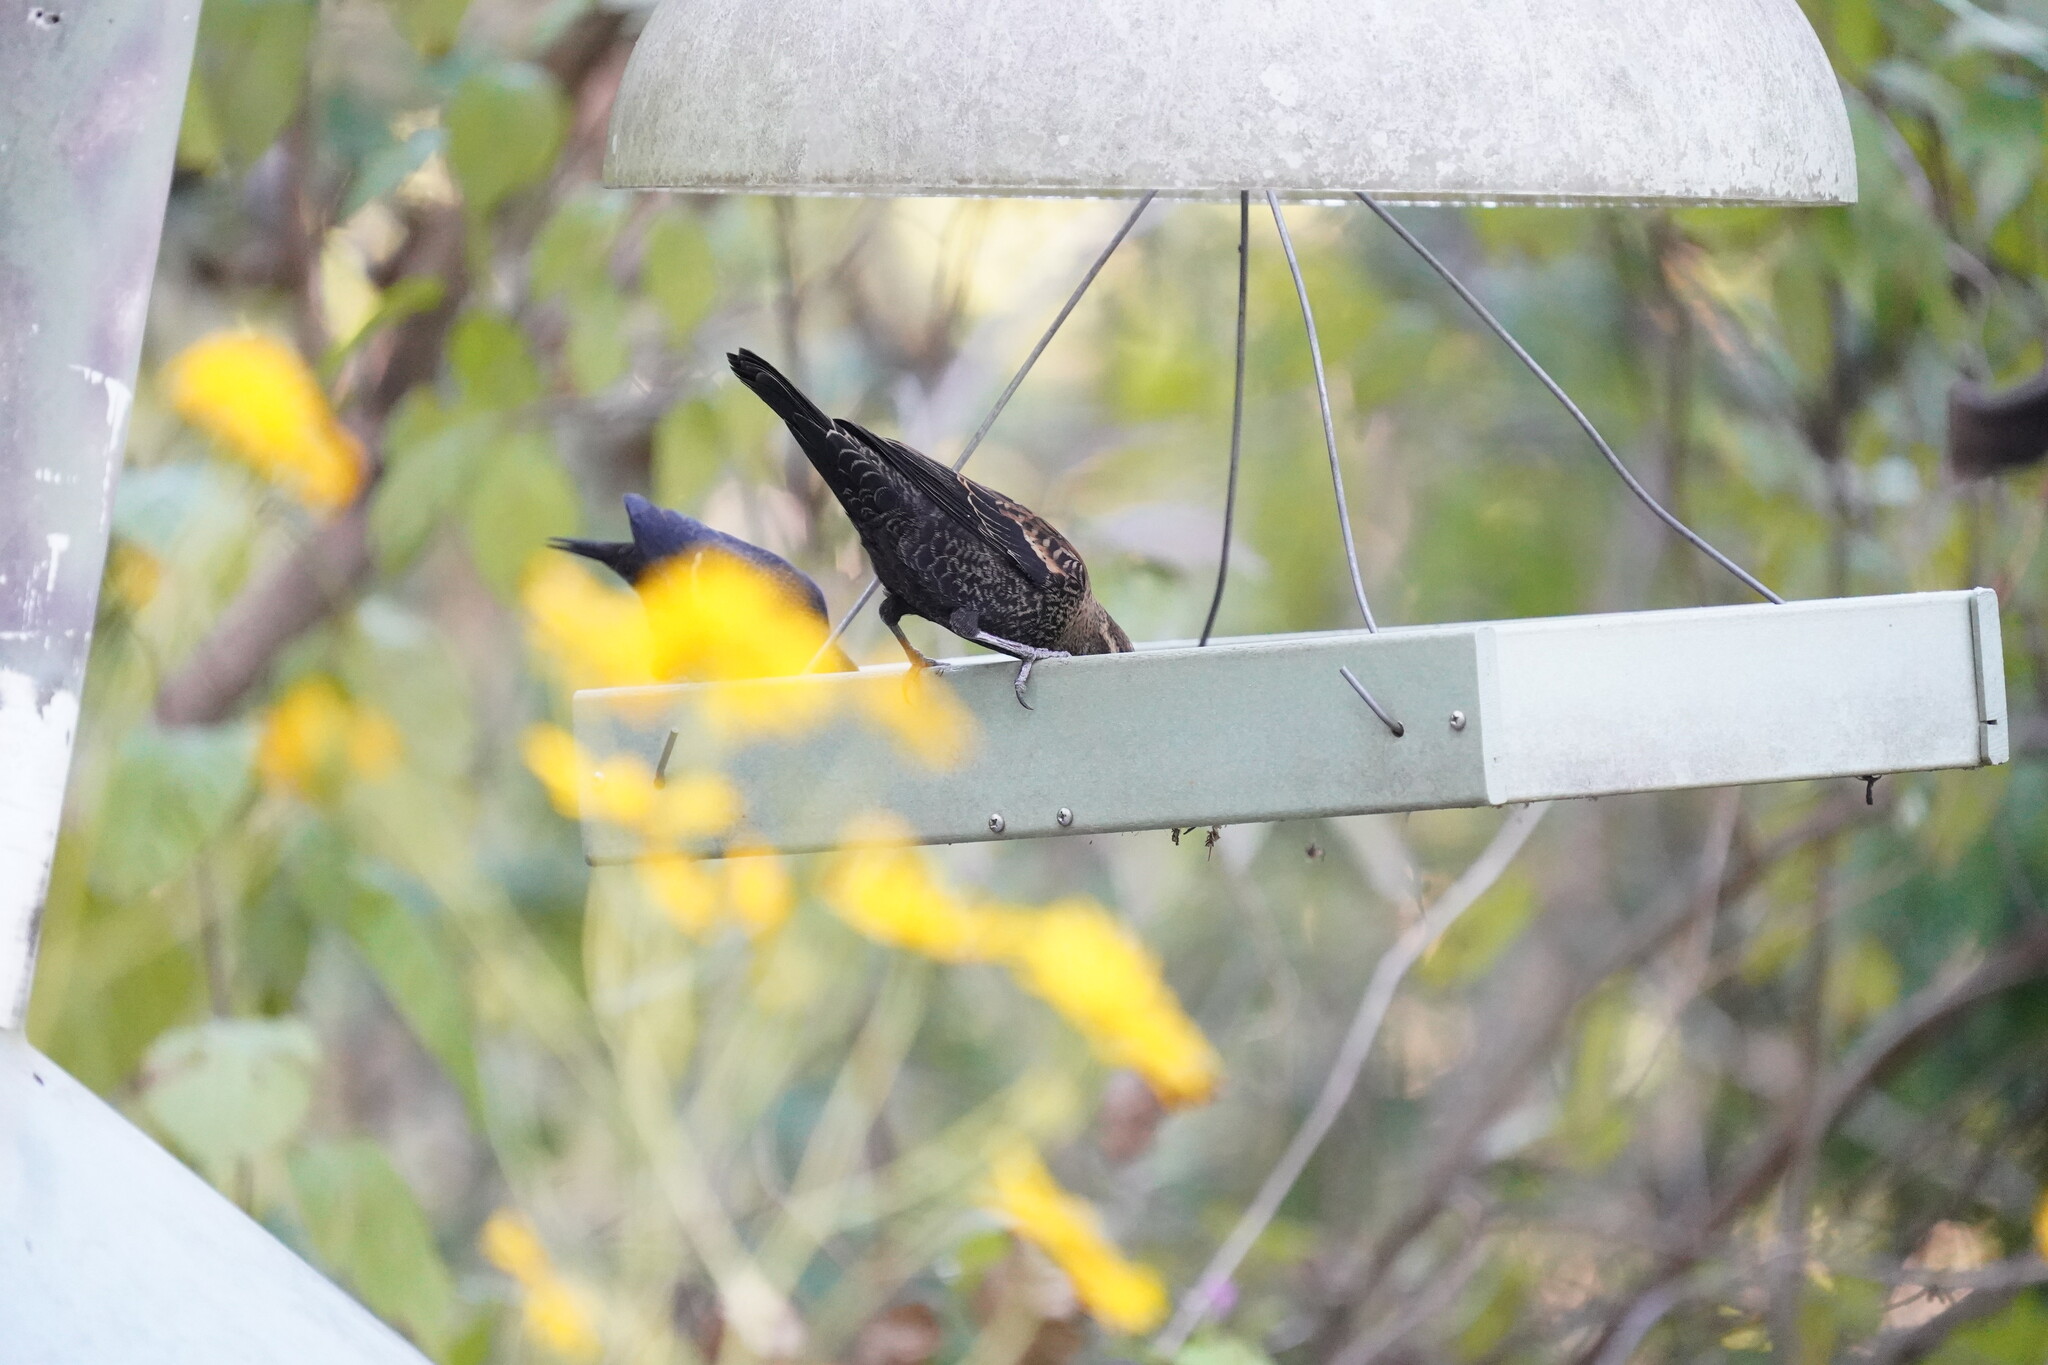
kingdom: Animalia
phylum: Chordata
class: Aves
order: Passeriformes
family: Icteridae
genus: Agelaius
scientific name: Agelaius phoeniceus
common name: Red-winged blackbird
